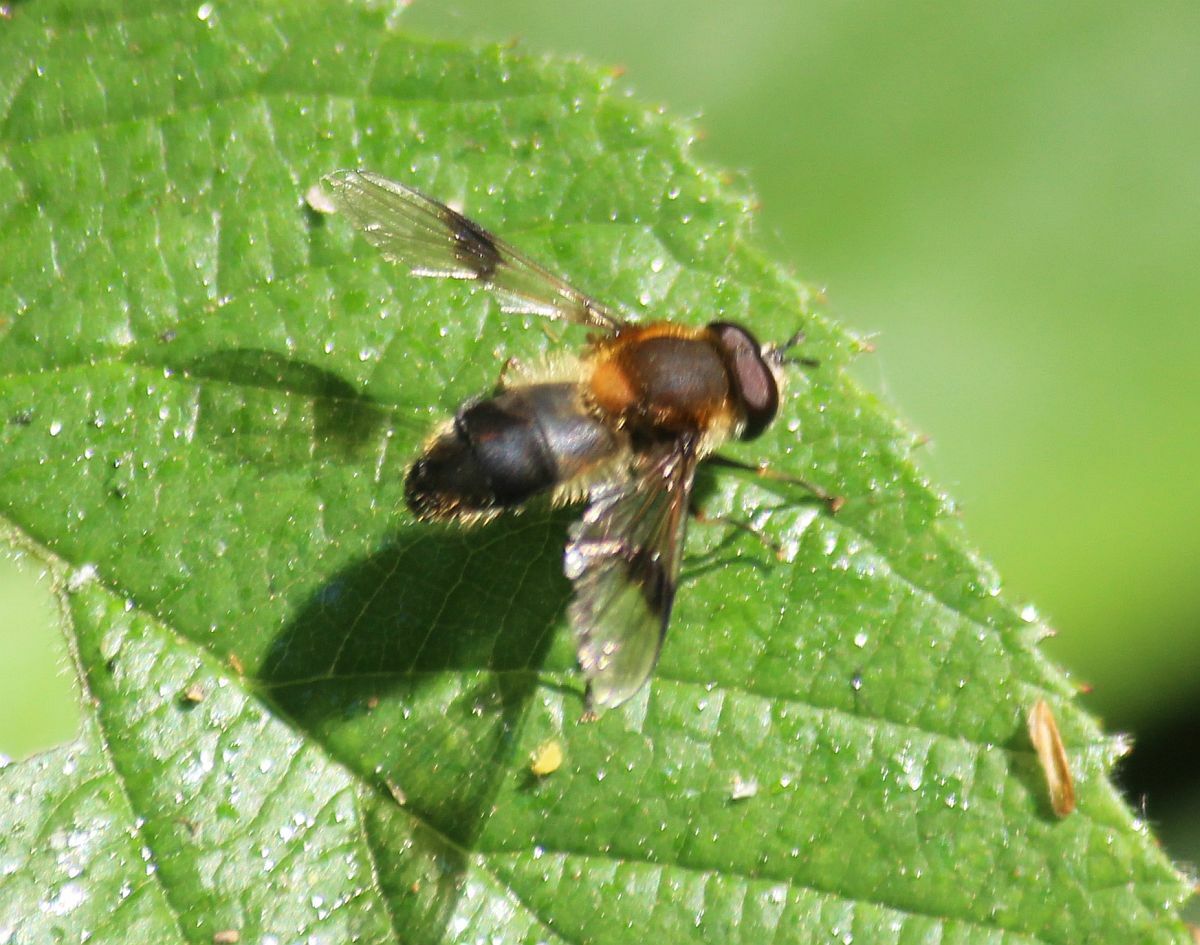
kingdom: Animalia
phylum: Arthropoda
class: Insecta
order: Diptera
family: Syrphidae
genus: Leucozona
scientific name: Leucozona lucorum
